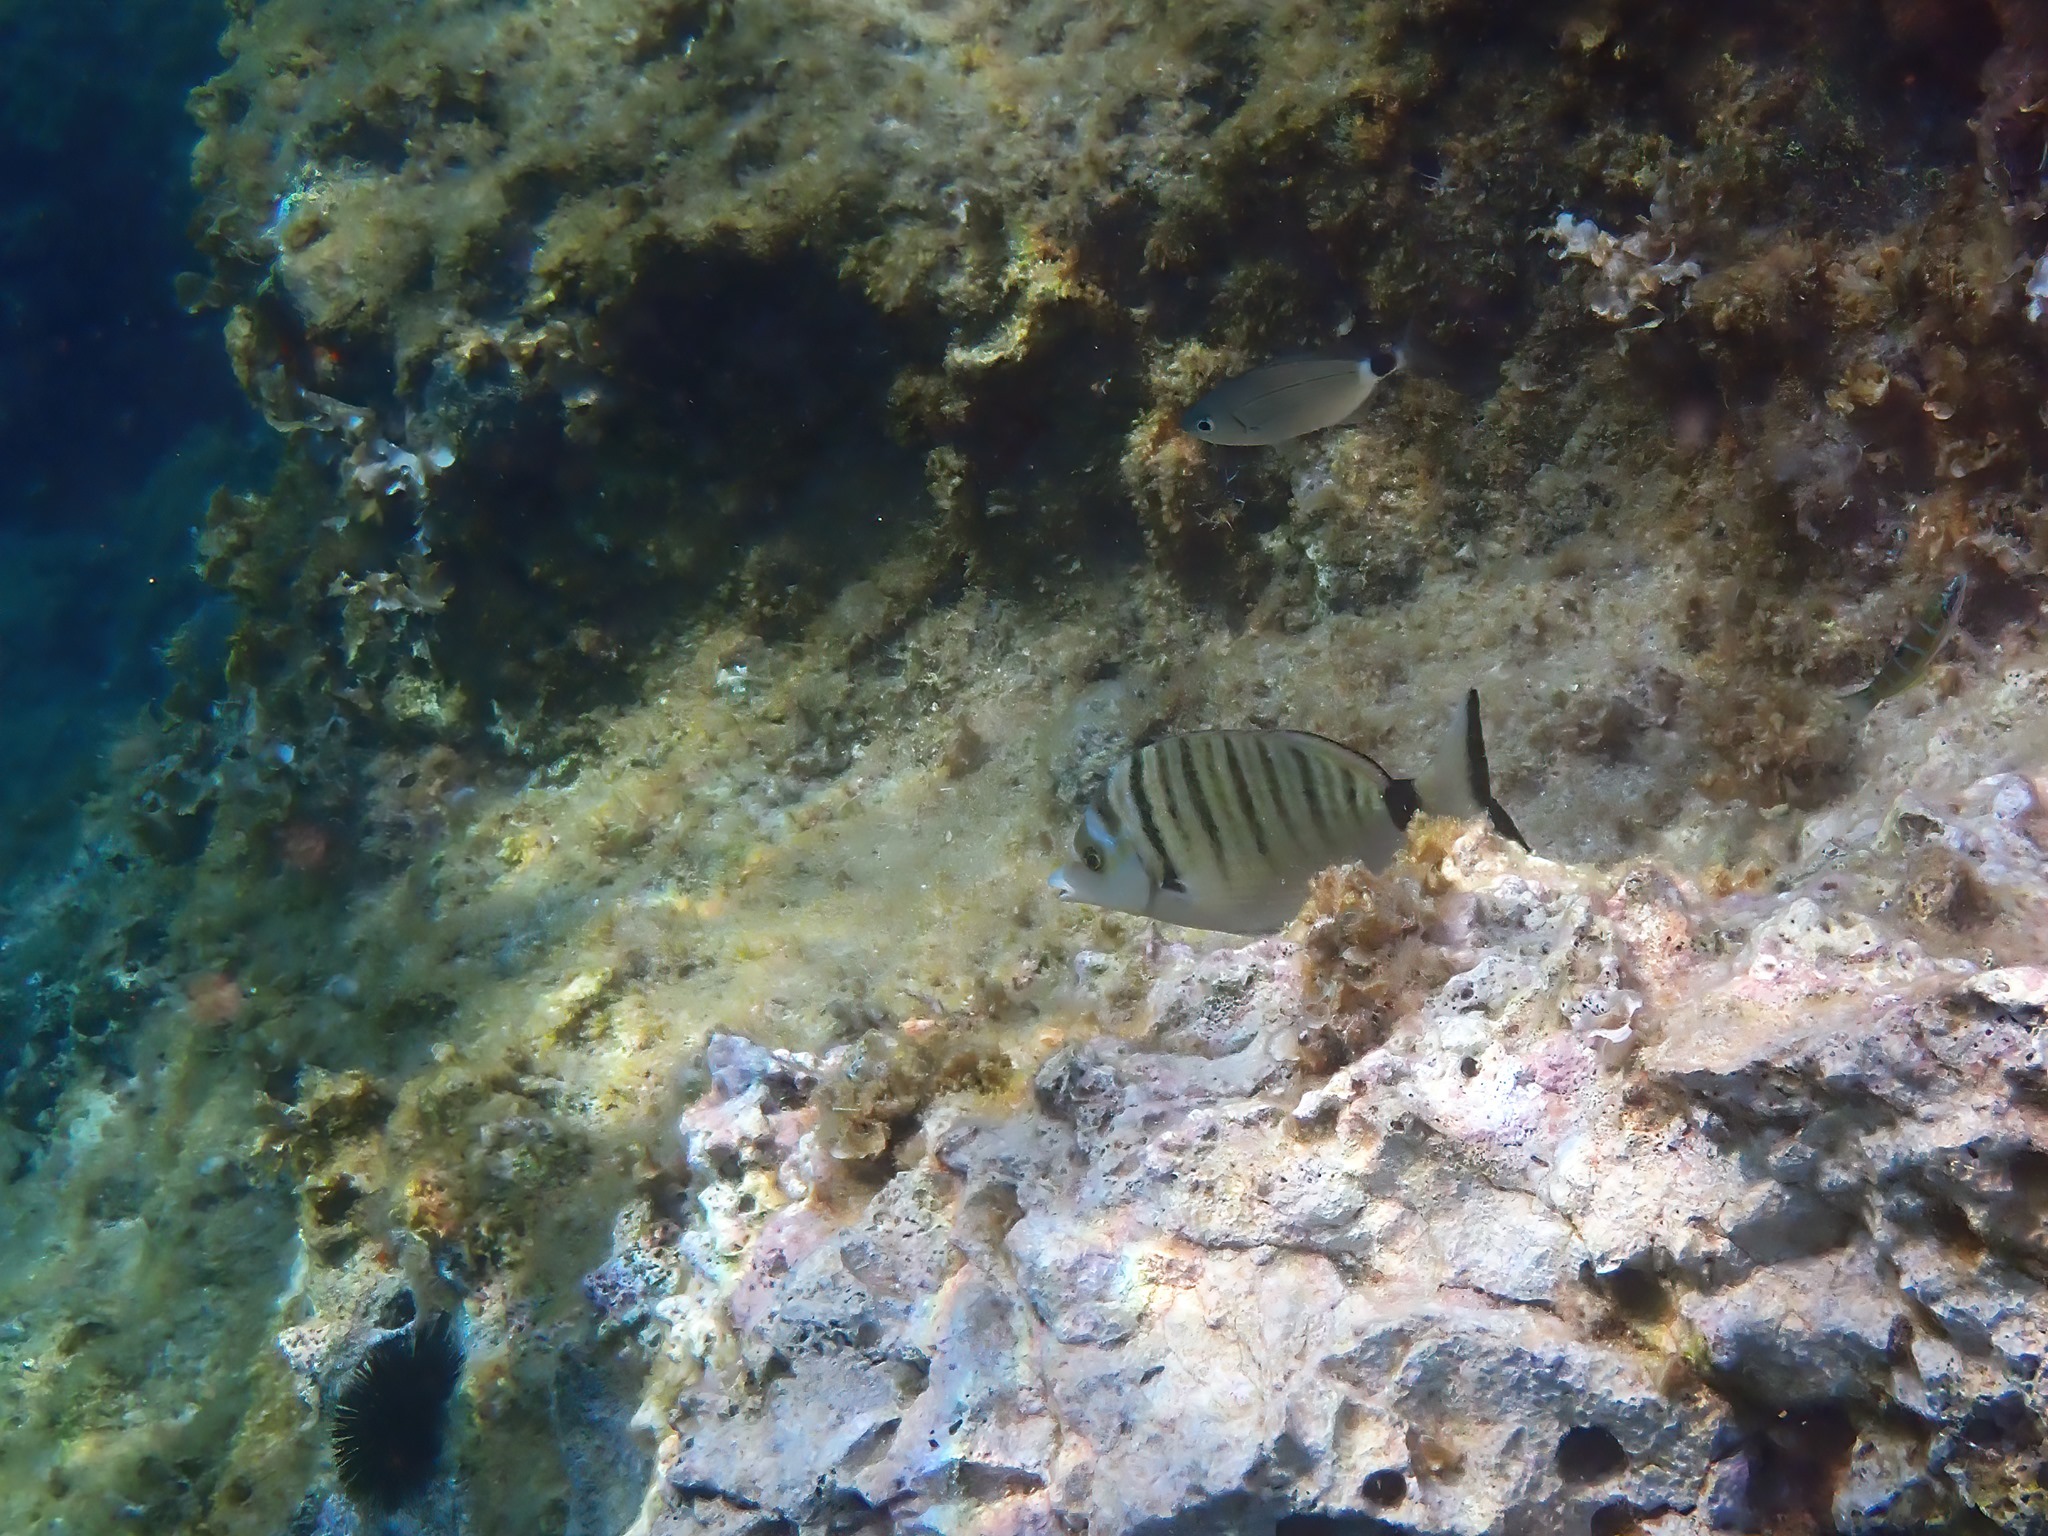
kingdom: Animalia
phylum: Chordata
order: Perciformes
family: Sparidae
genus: Diplodus
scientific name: Diplodus puntazzo
